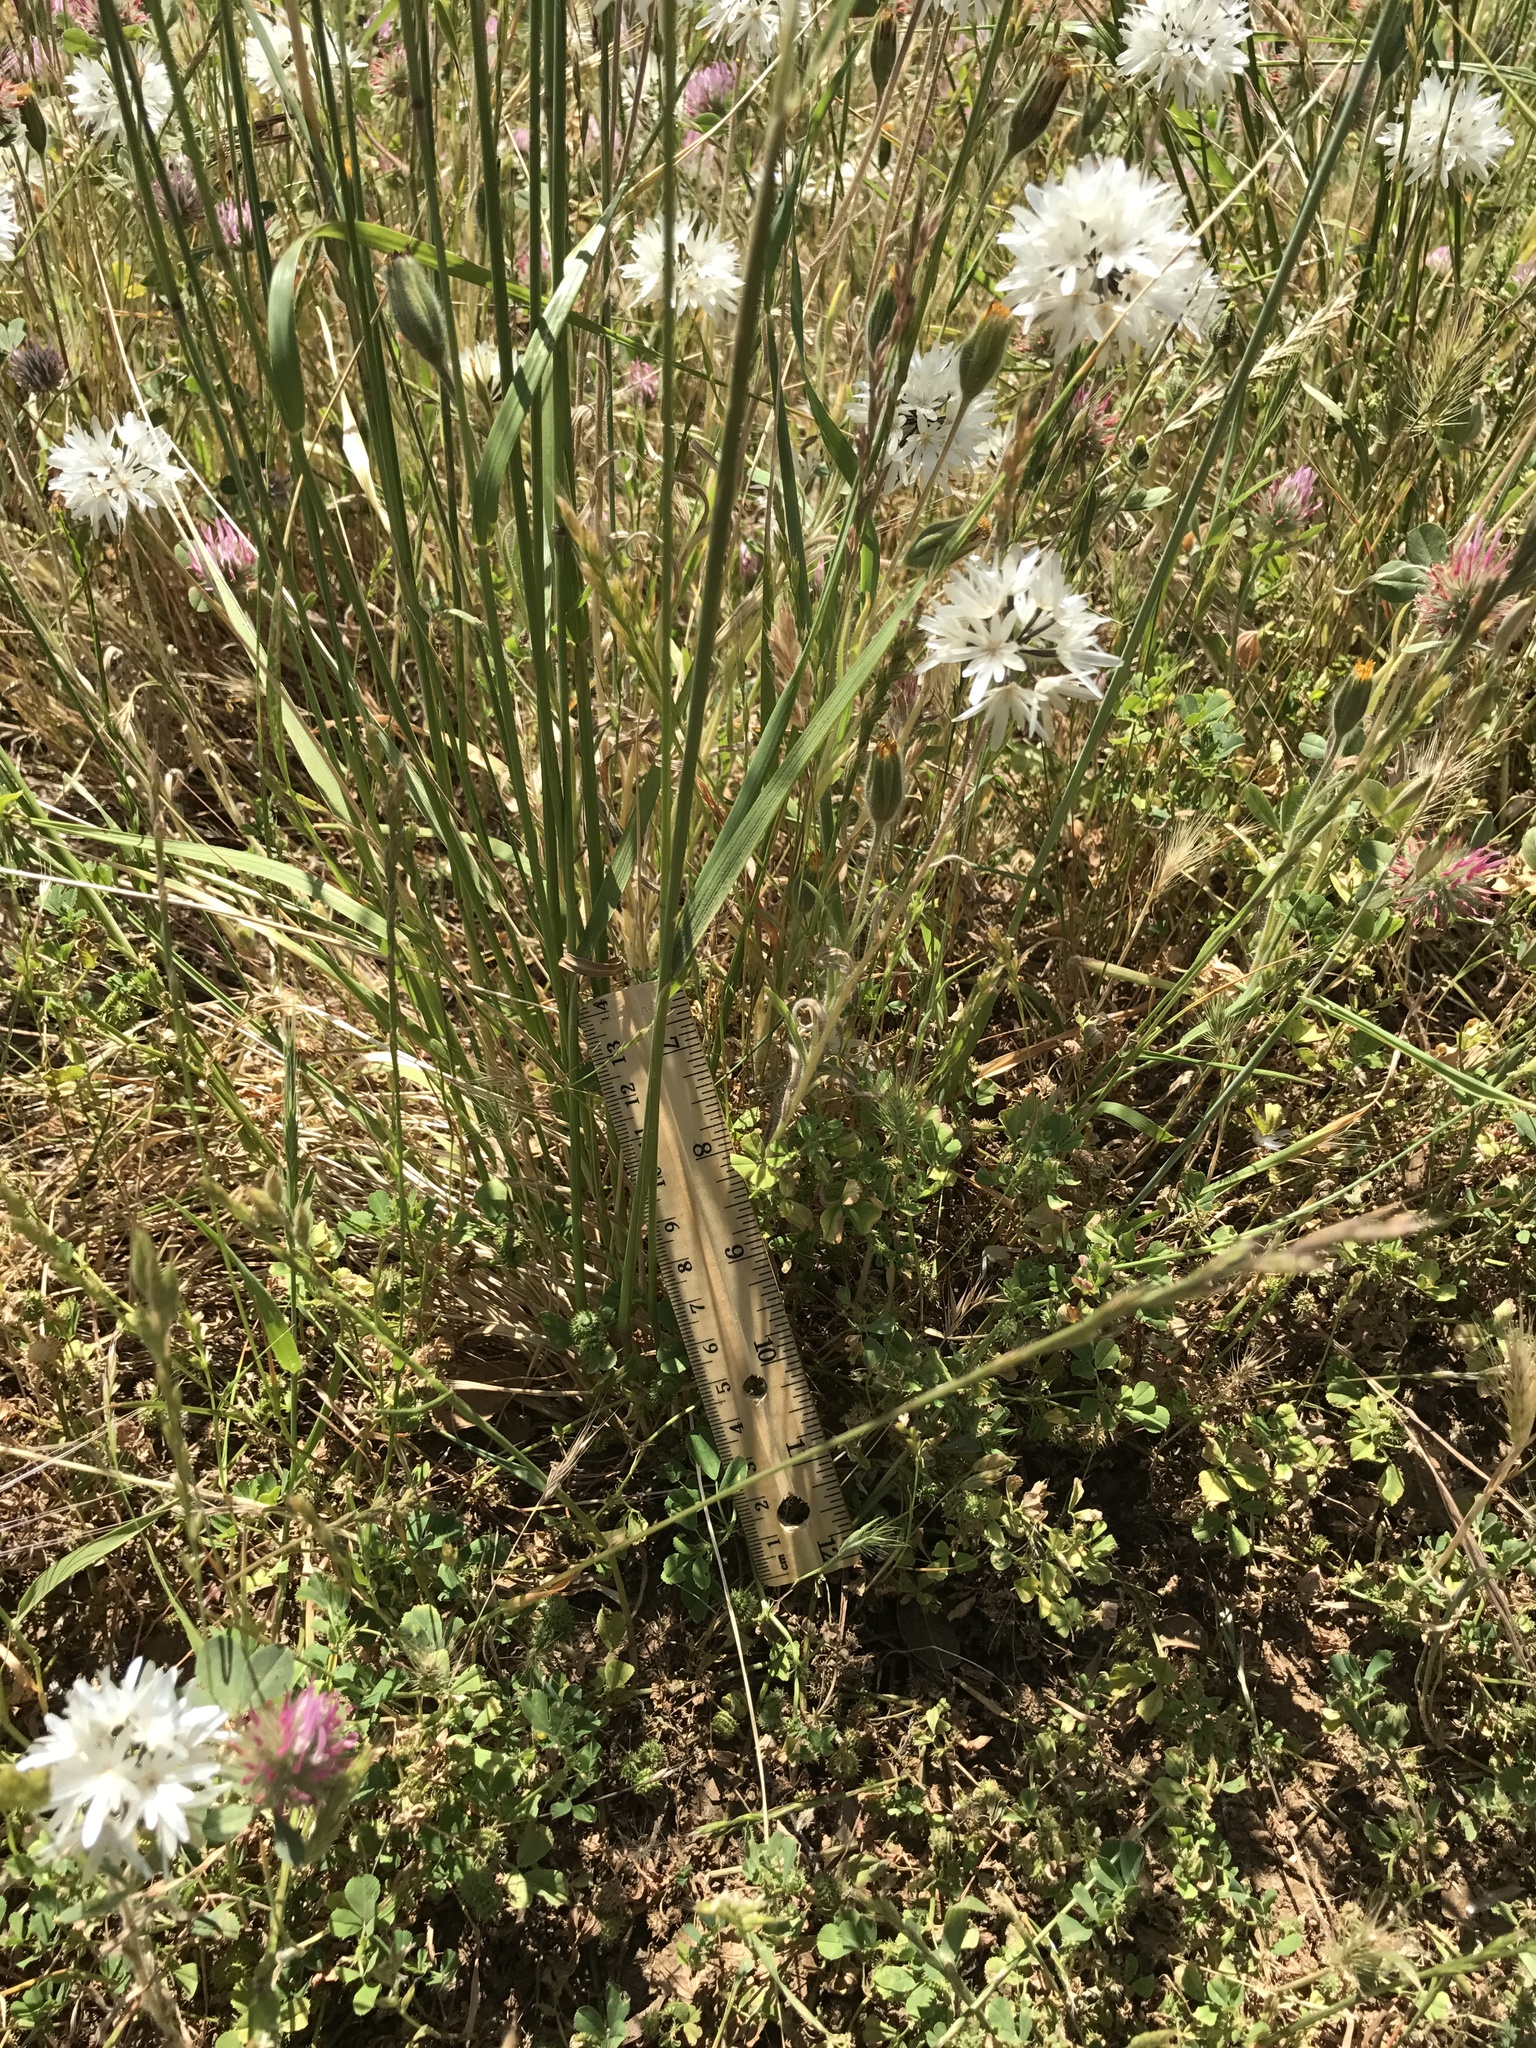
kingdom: Plantae
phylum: Tracheophyta
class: Magnoliopsida
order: Asterales
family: Asteraceae
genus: Achyrachaena
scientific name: Achyrachaena mollis
